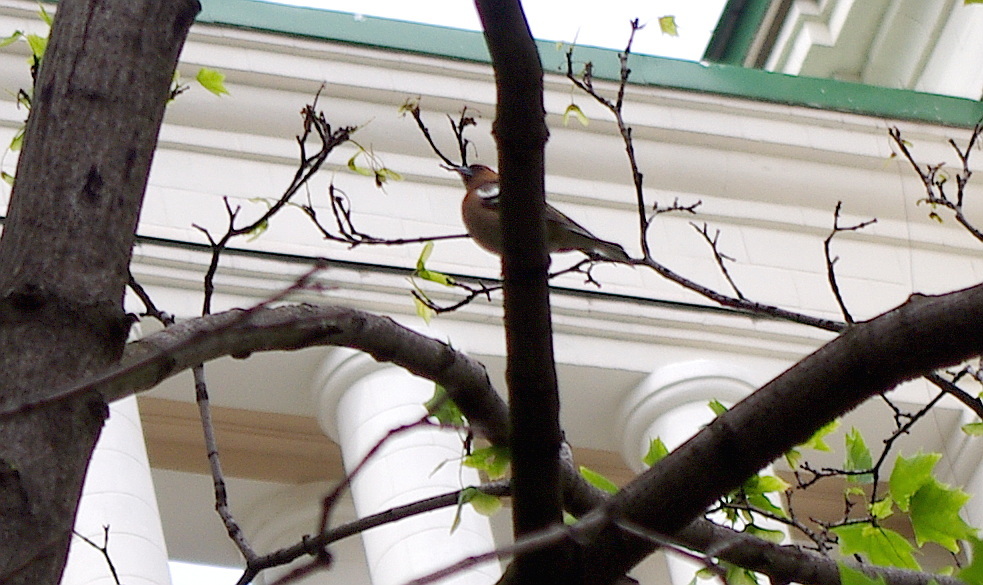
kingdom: Animalia
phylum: Chordata
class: Aves
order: Passeriformes
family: Fringillidae
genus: Fringilla
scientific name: Fringilla coelebs
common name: Common chaffinch
